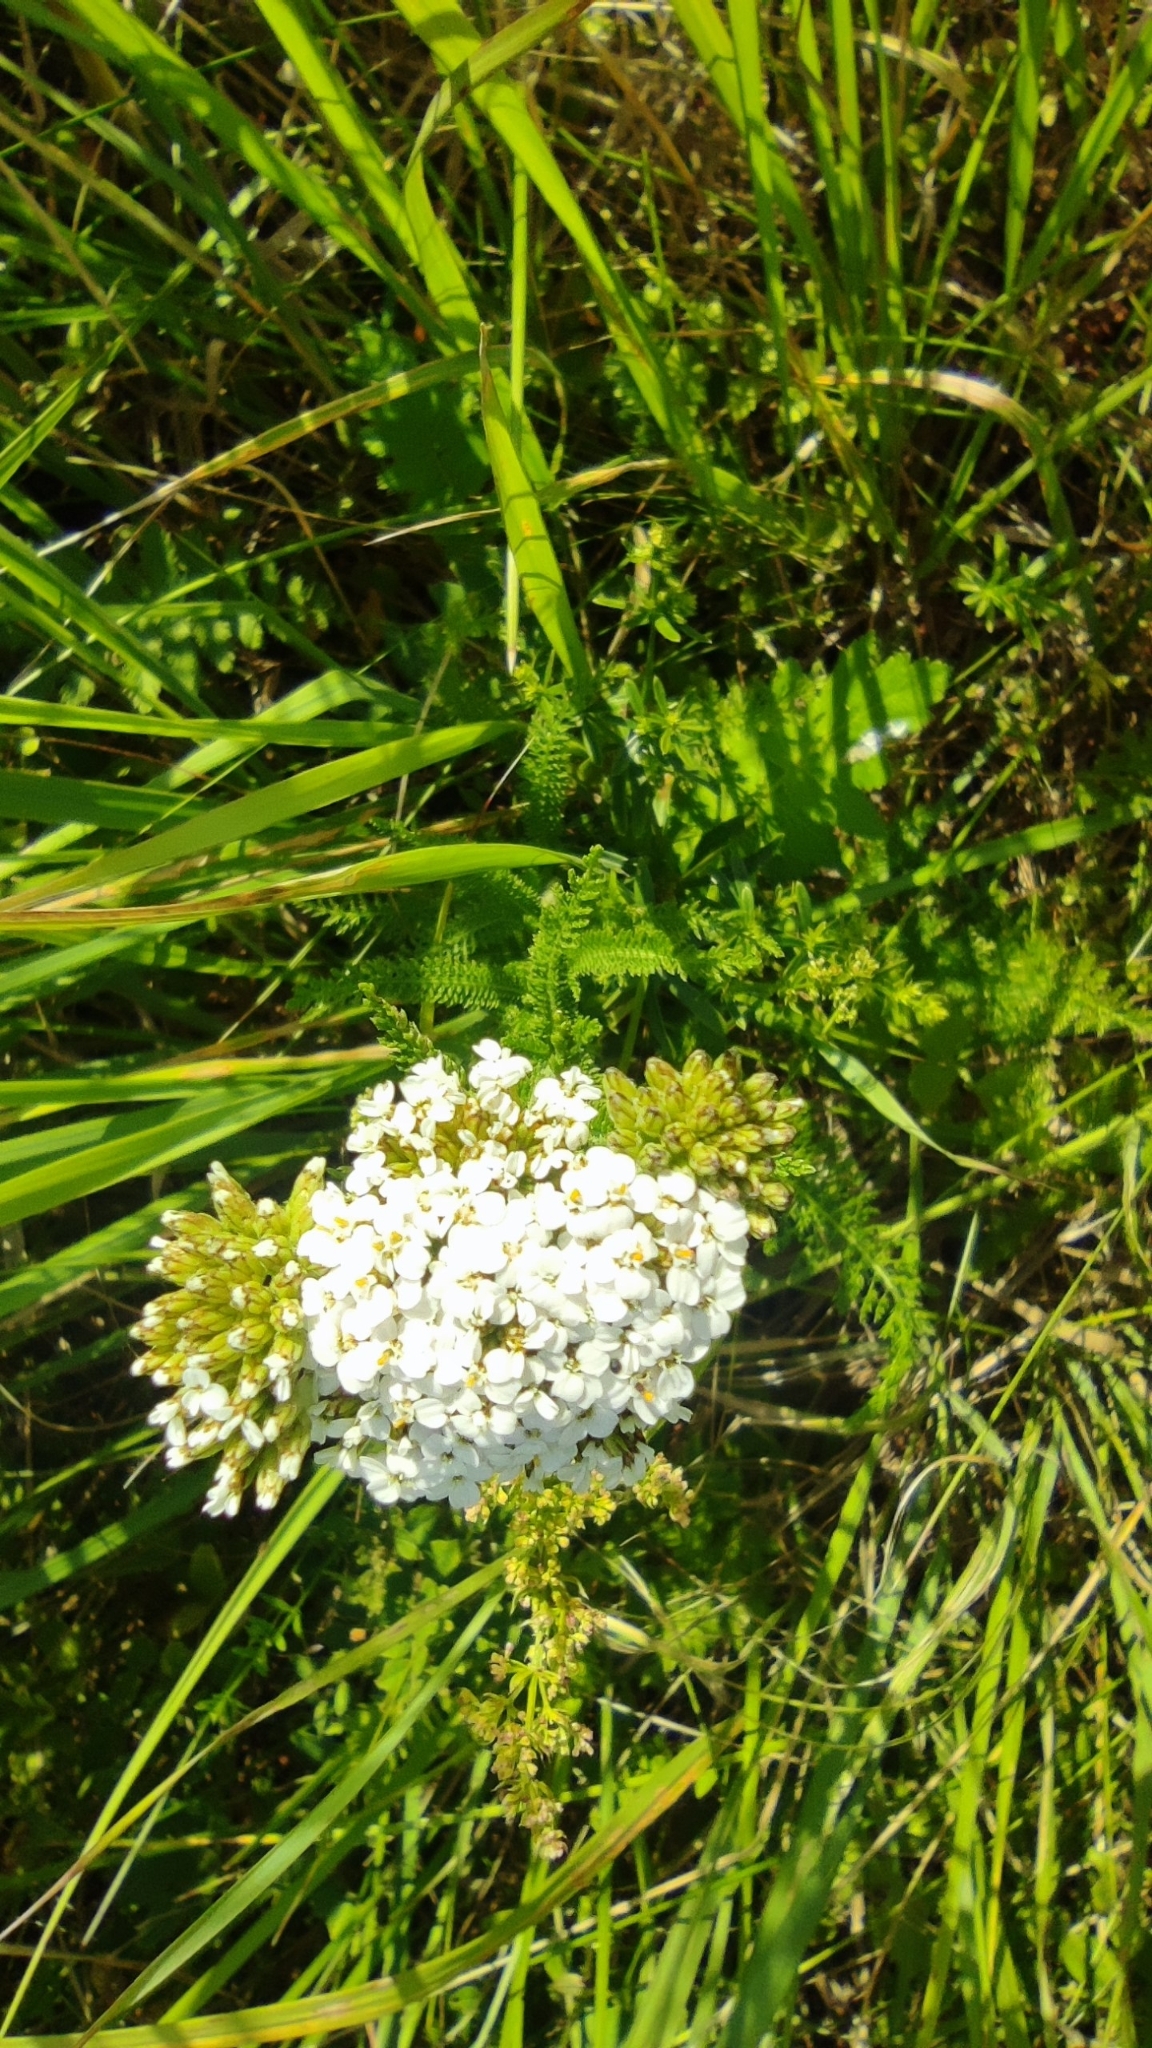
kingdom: Plantae
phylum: Tracheophyta
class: Magnoliopsida
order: Asterales
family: Asteraceae
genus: Achillea
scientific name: Achillea millefolium
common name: Yarrow
